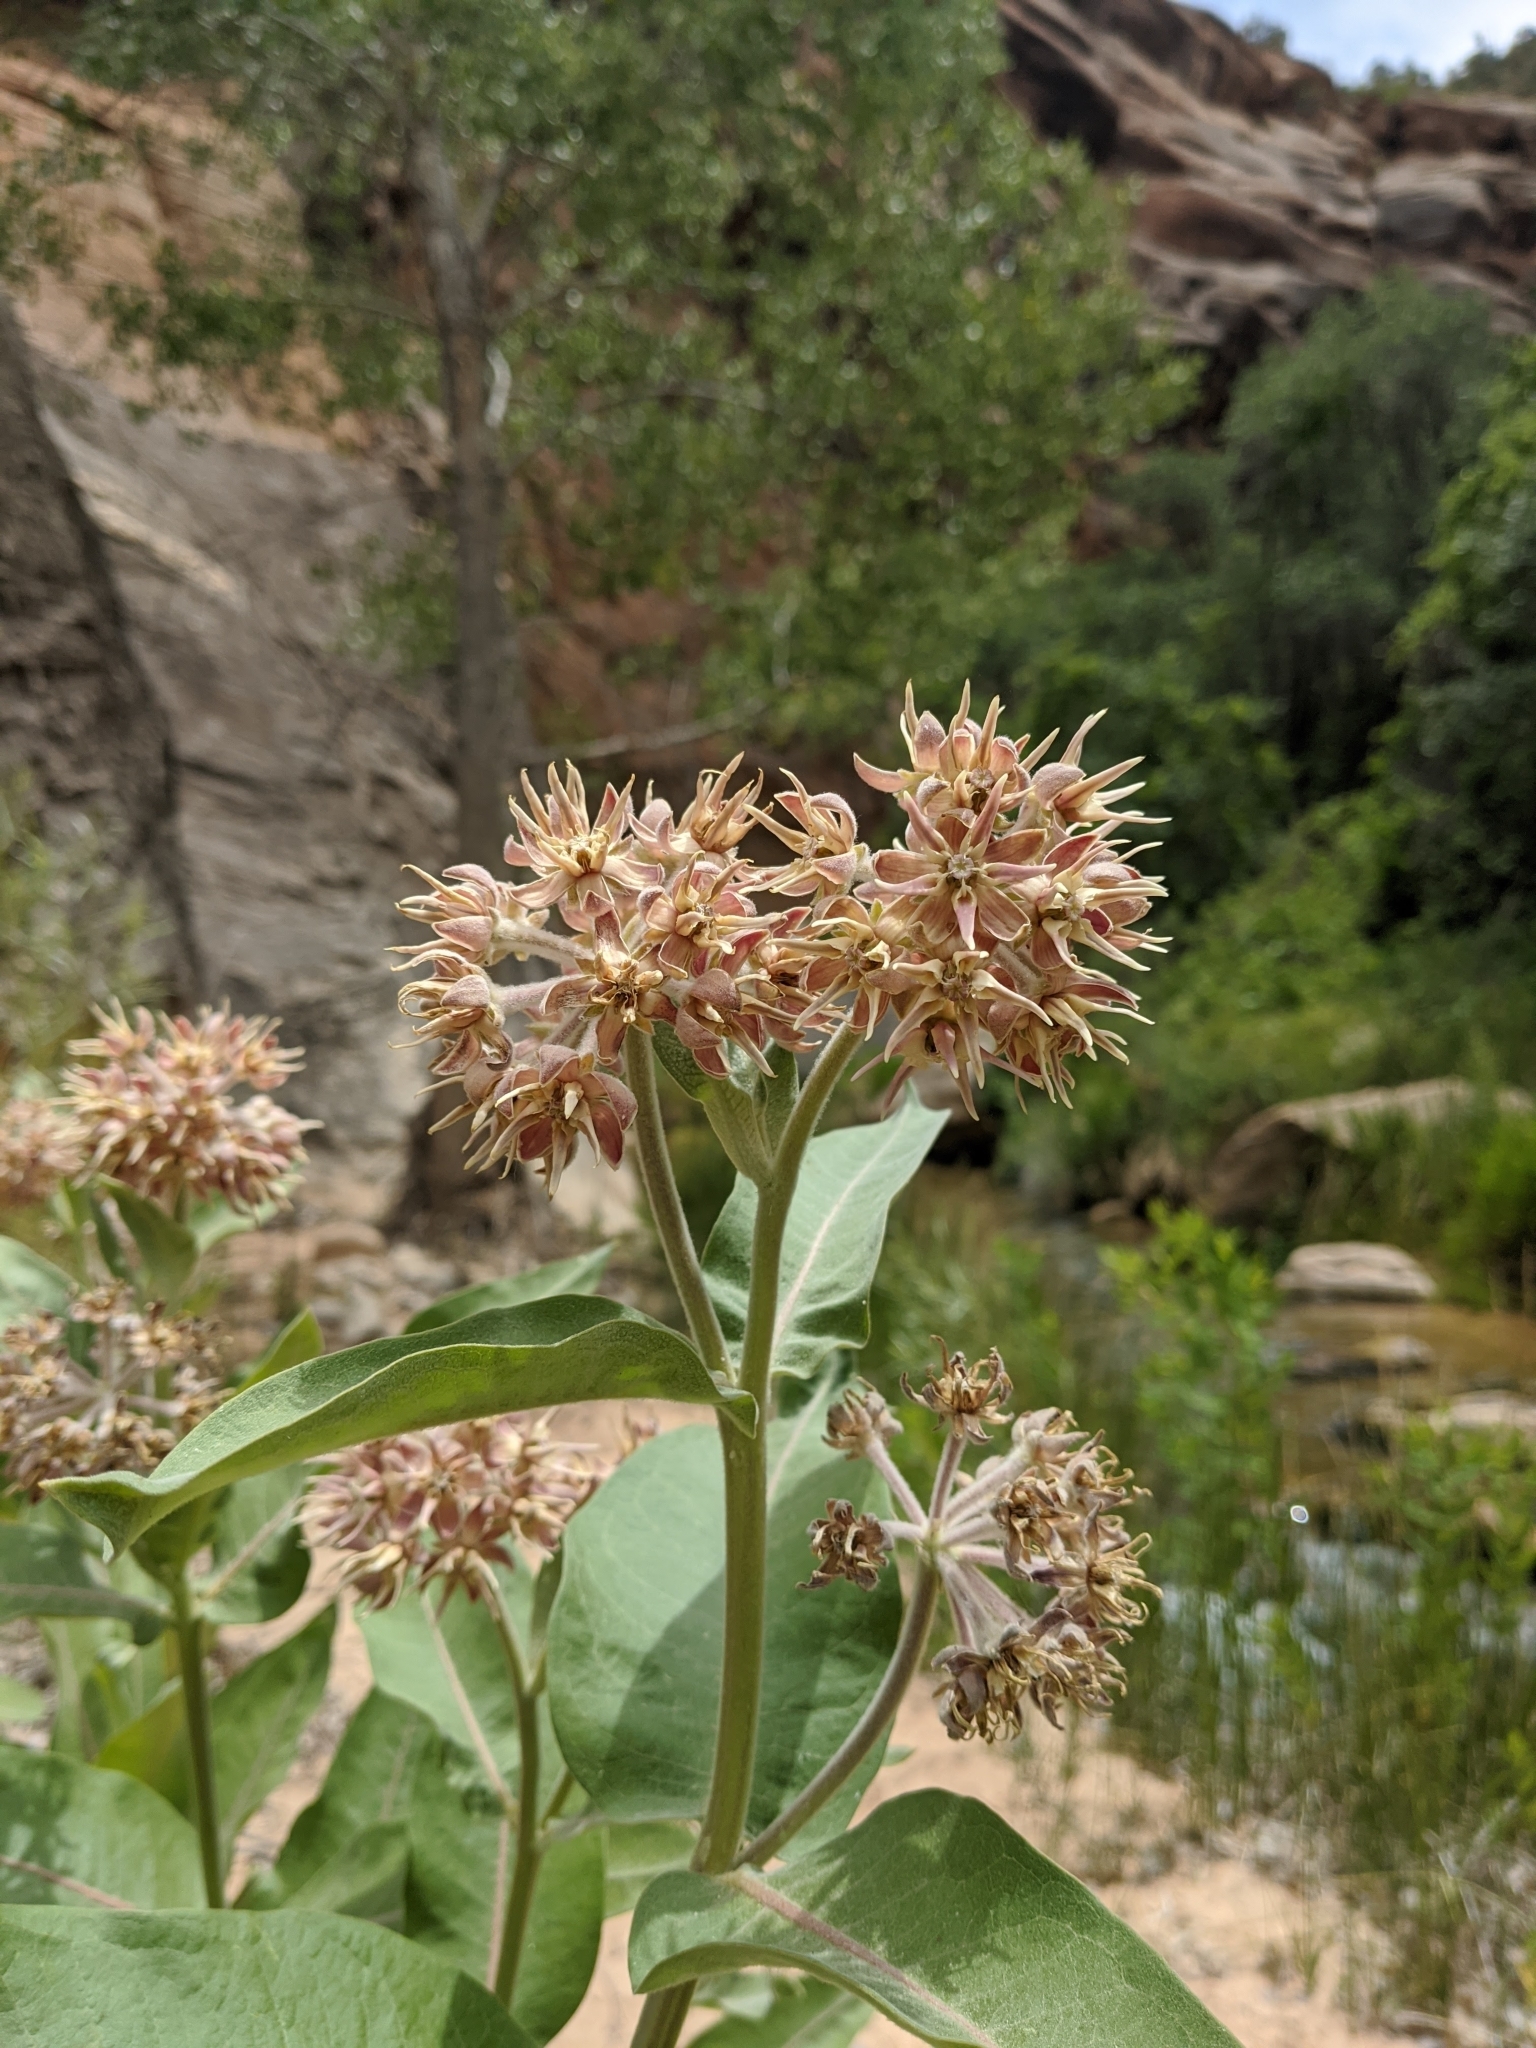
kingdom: Plantae
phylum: Tracheophyta
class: Magnoliopsida
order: Gentianales
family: Apocynaceae
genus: Asclepias
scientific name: Asclepias speciosa
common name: Showy milkweed
